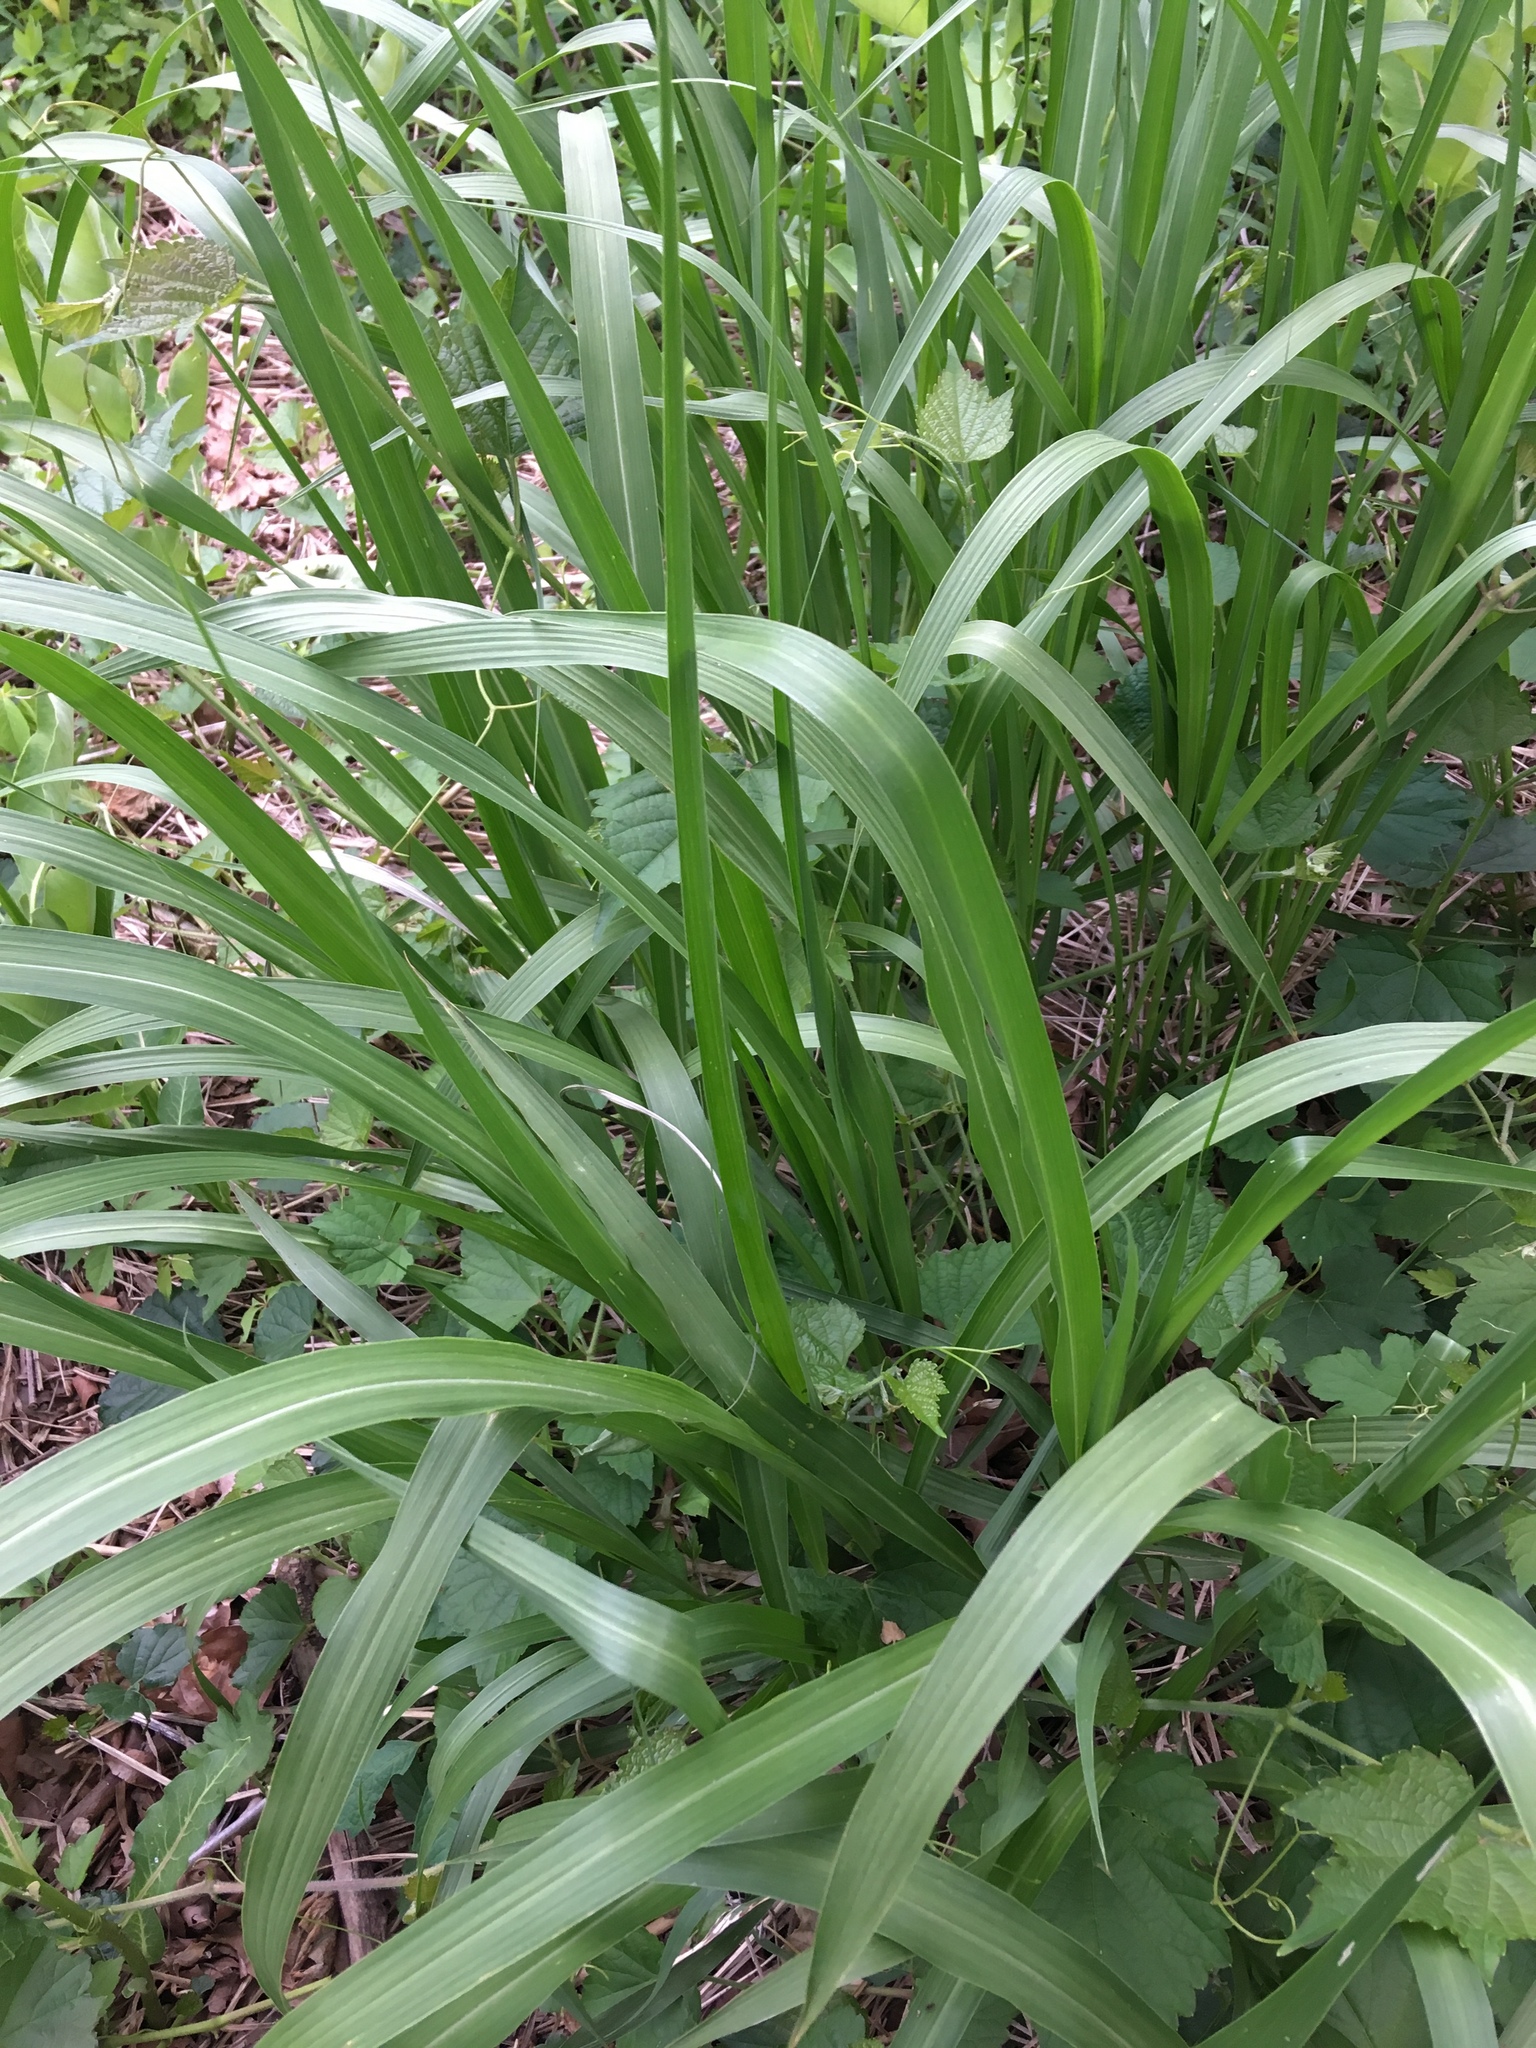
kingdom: Plantae
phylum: Tracheophyta
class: Liliopsida
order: Poales
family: Poaceae
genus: Tripsacum
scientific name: Tripsacum dactyloides
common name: Buffalo-grass
